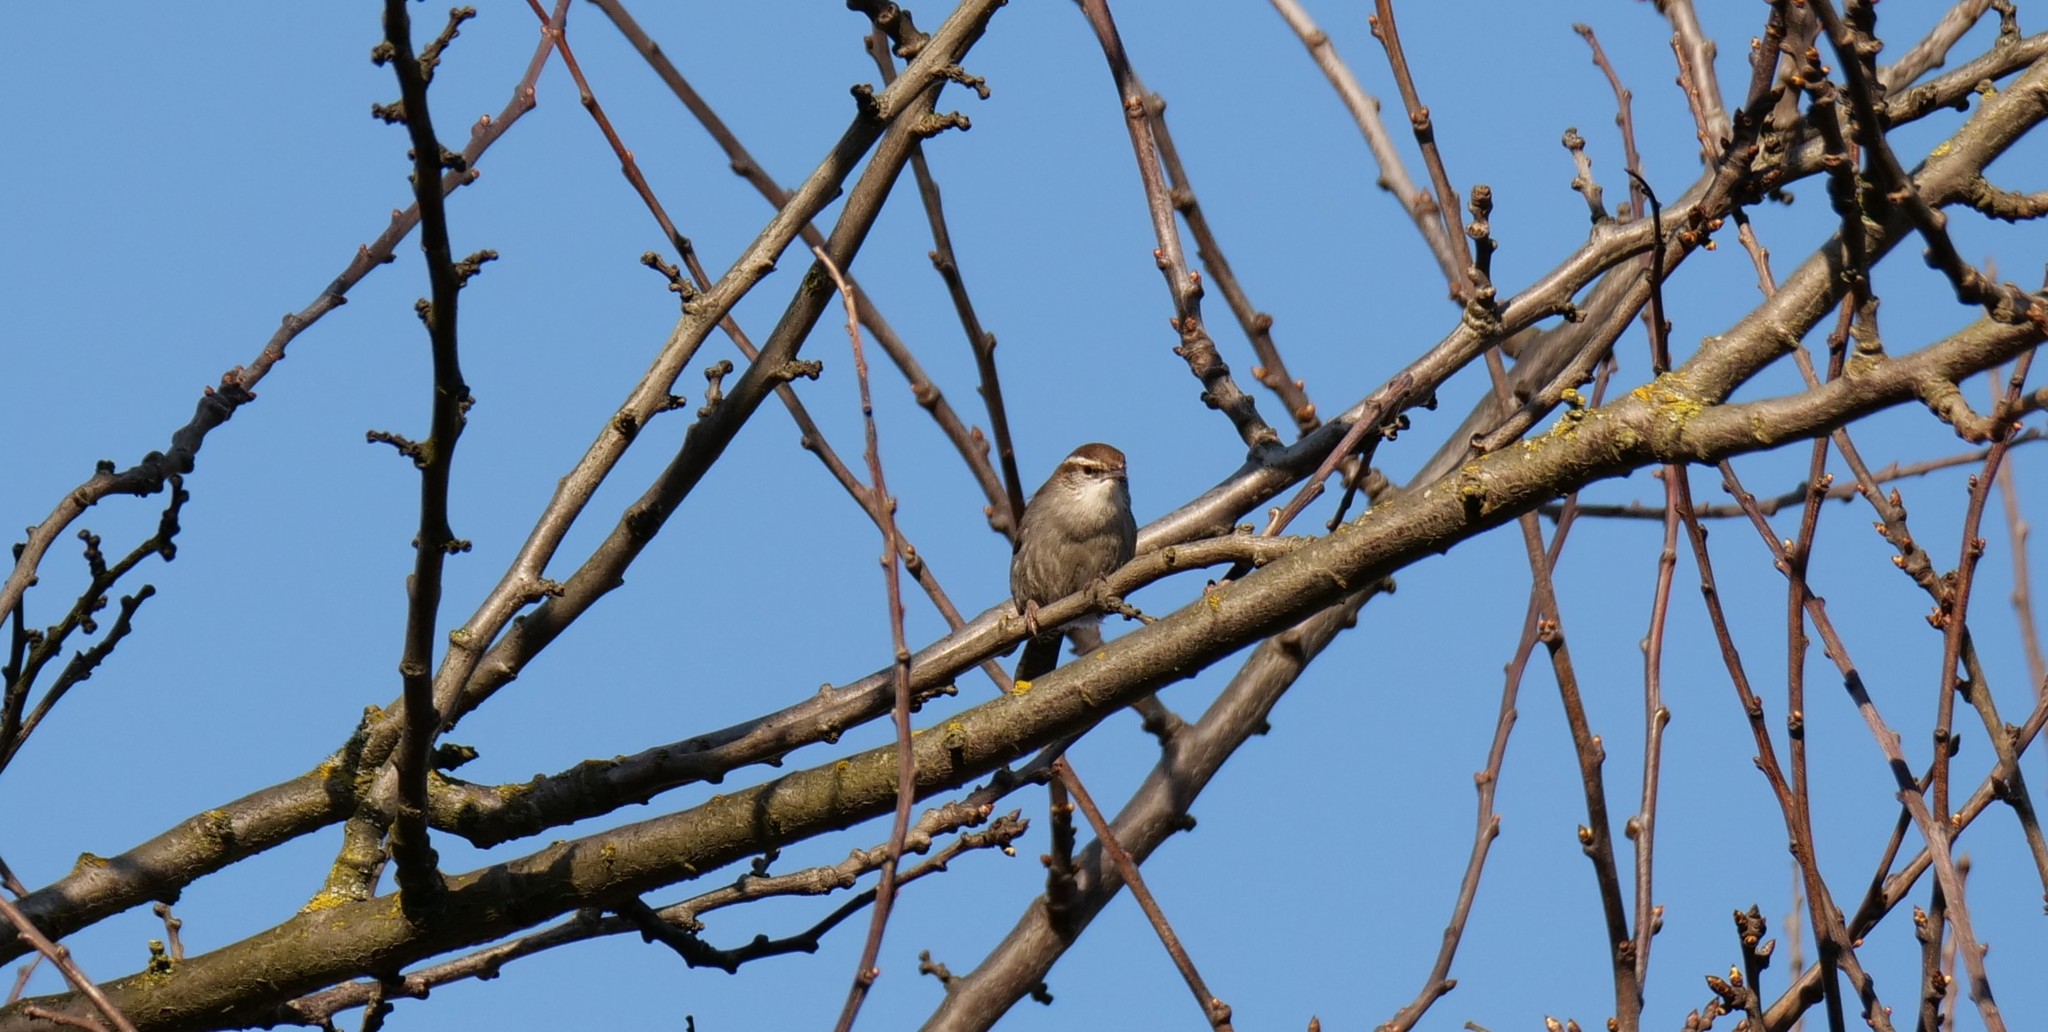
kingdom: Animalia
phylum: Chordata
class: Aves
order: Passeriformes
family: Troglodytidae
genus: Thryomanes
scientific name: Thryomanes bewickii
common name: Bewick's wren
